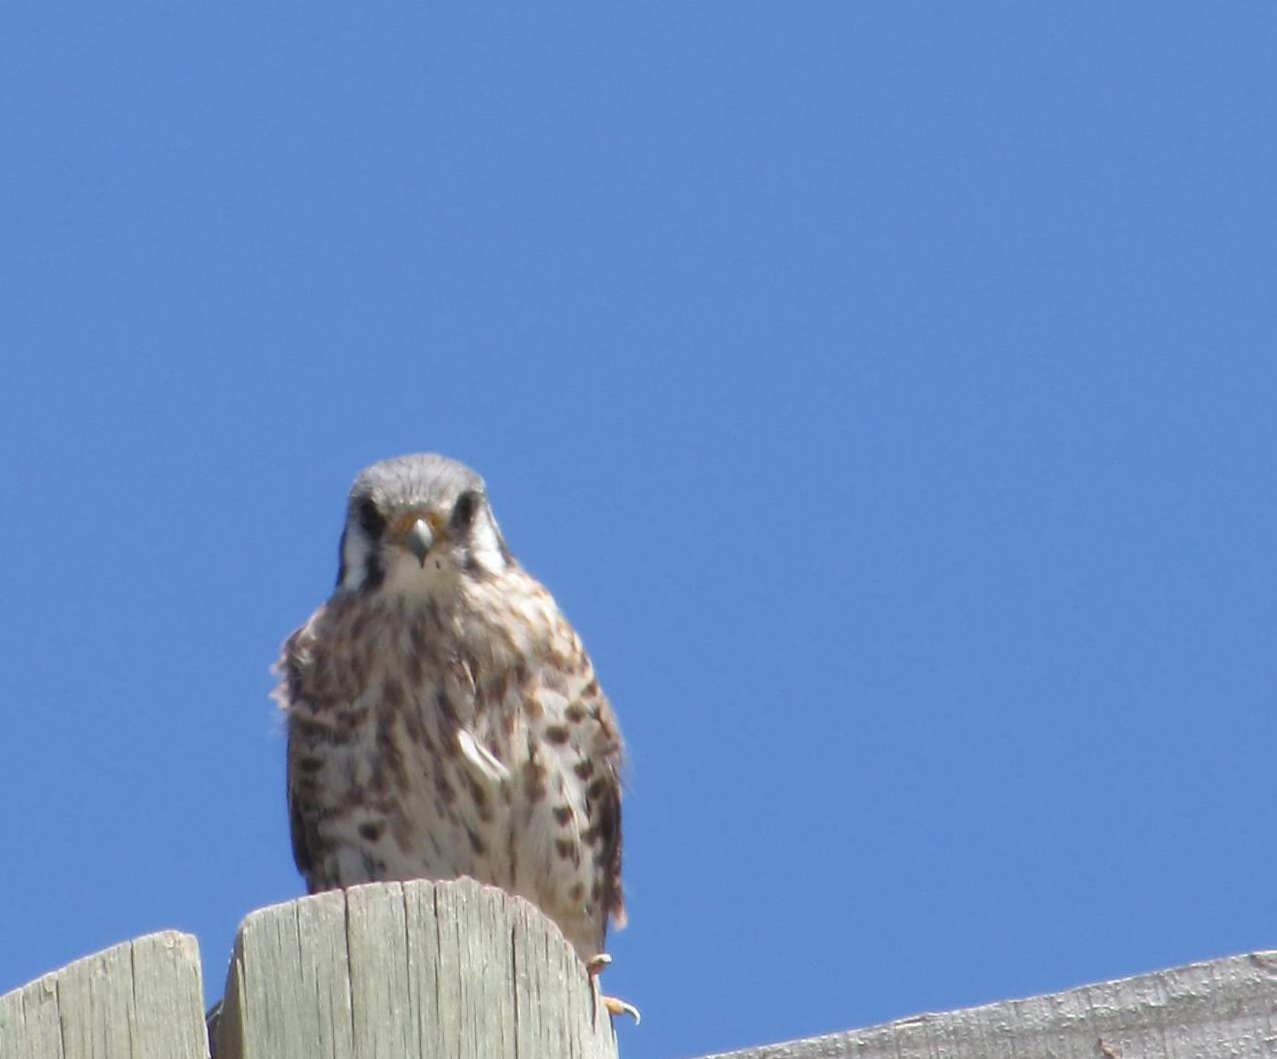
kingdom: Animalia
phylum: Chordata
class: Aves
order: Falconiformes
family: Falconidae
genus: Falco
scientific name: Falco sparverius
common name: American kestrel
